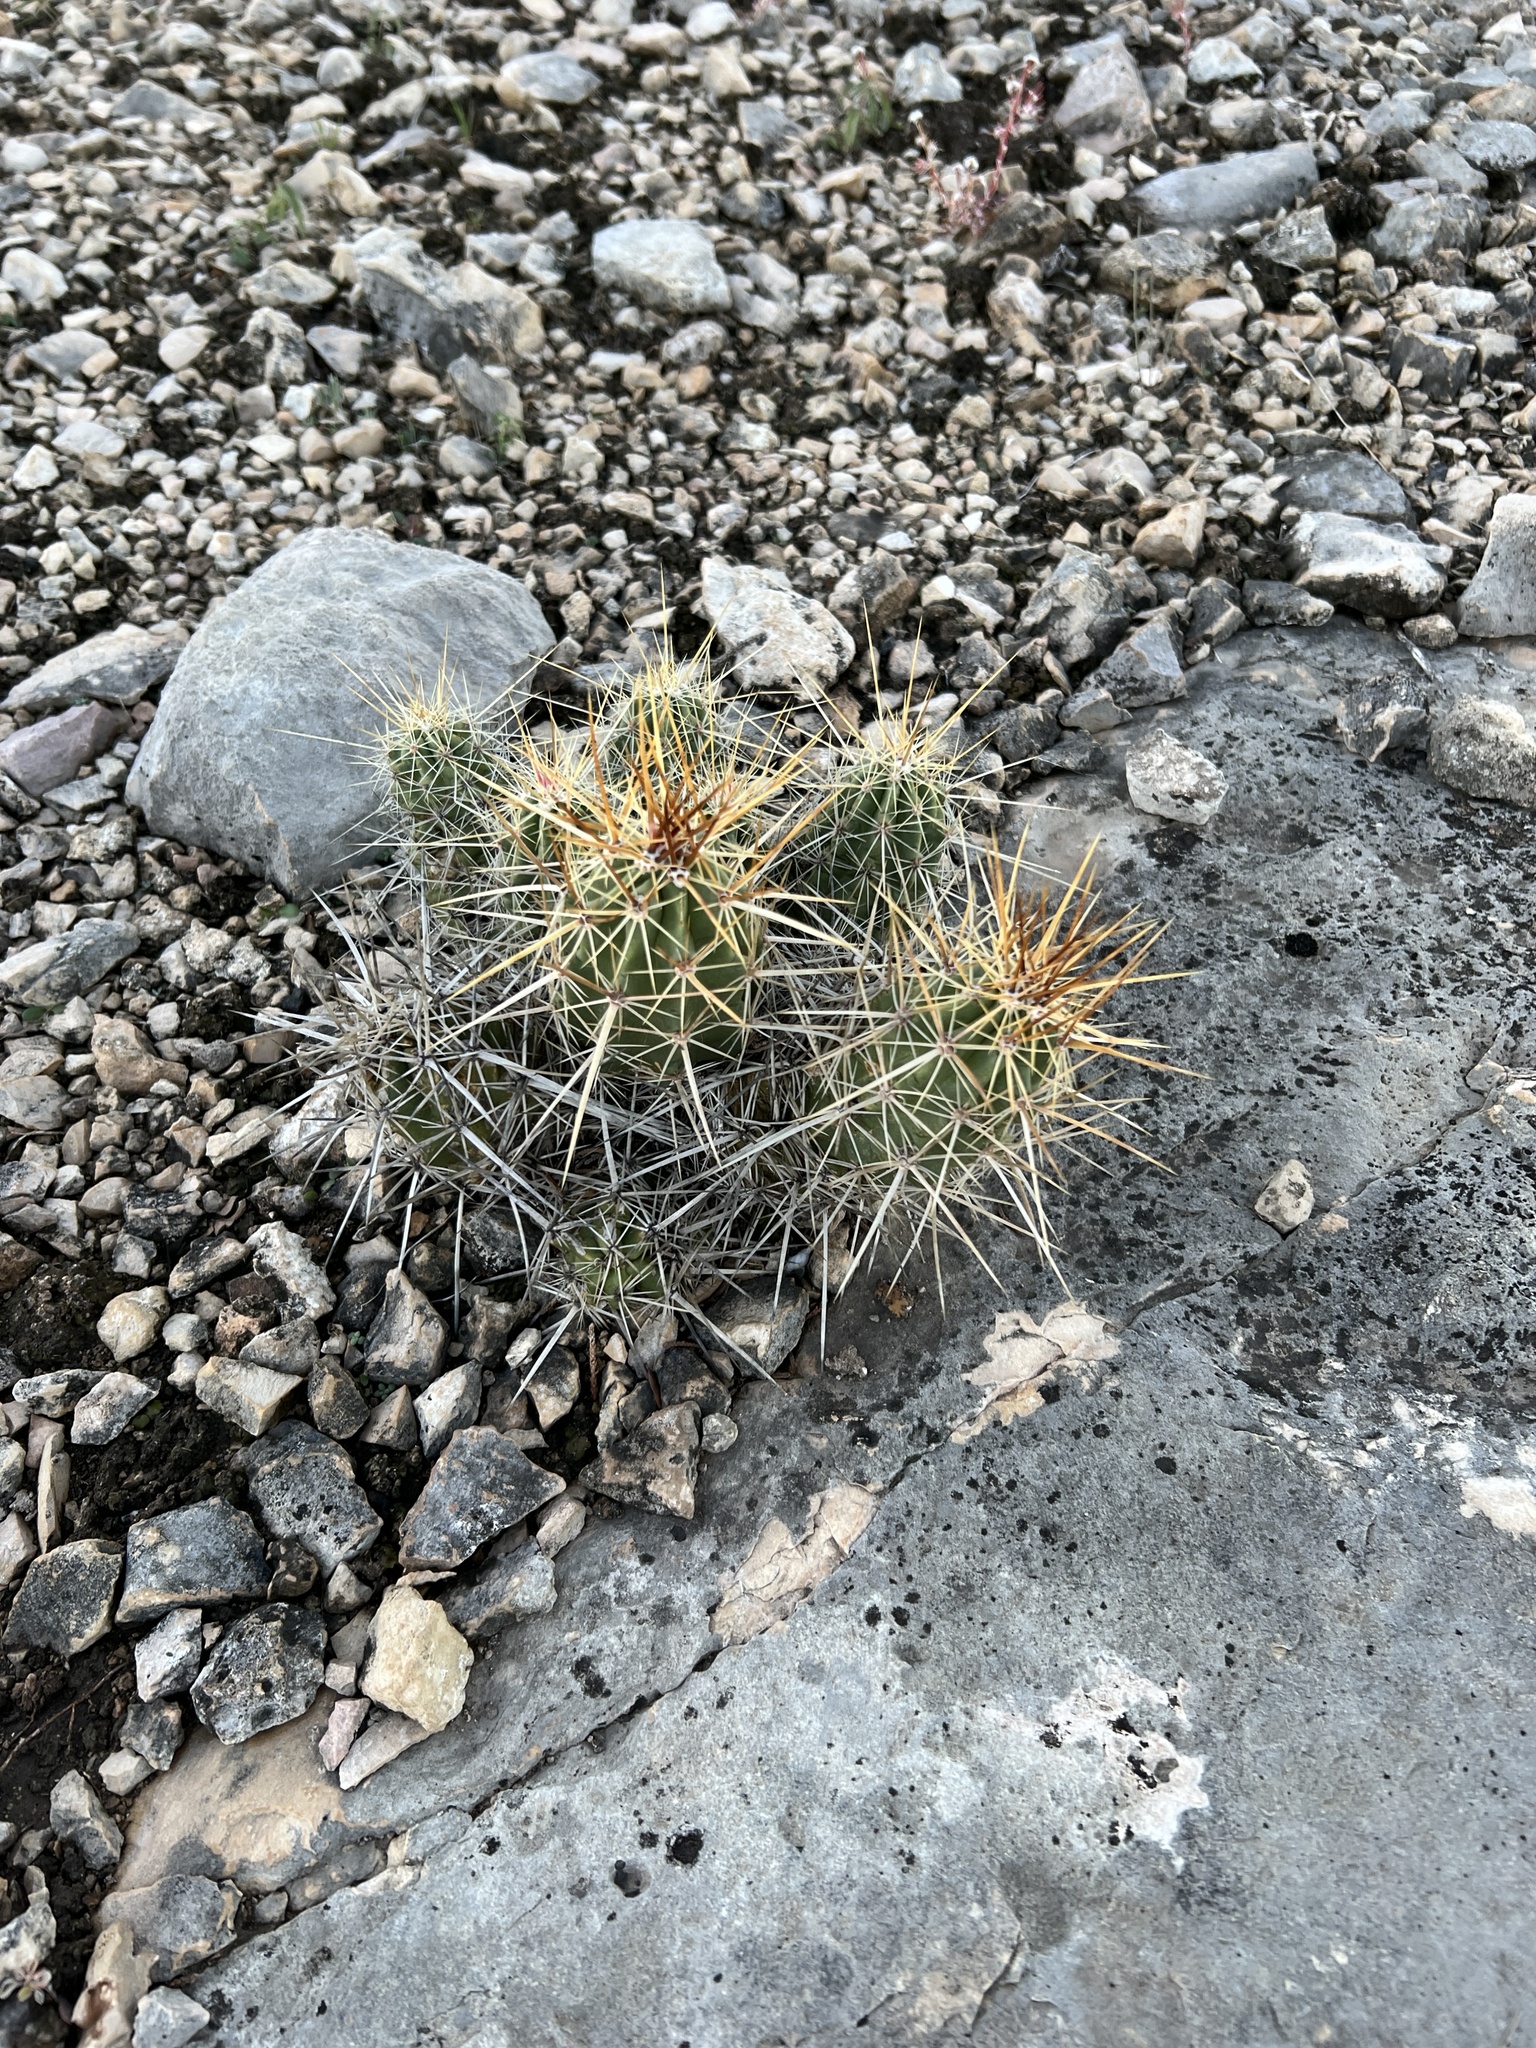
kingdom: Plantae
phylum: Tracheophyta
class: Magnoliopsida
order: Caryophyllales
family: Cactaceae
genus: Echinocereus
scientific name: Echinocereus enneacanthus
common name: Pitaya
